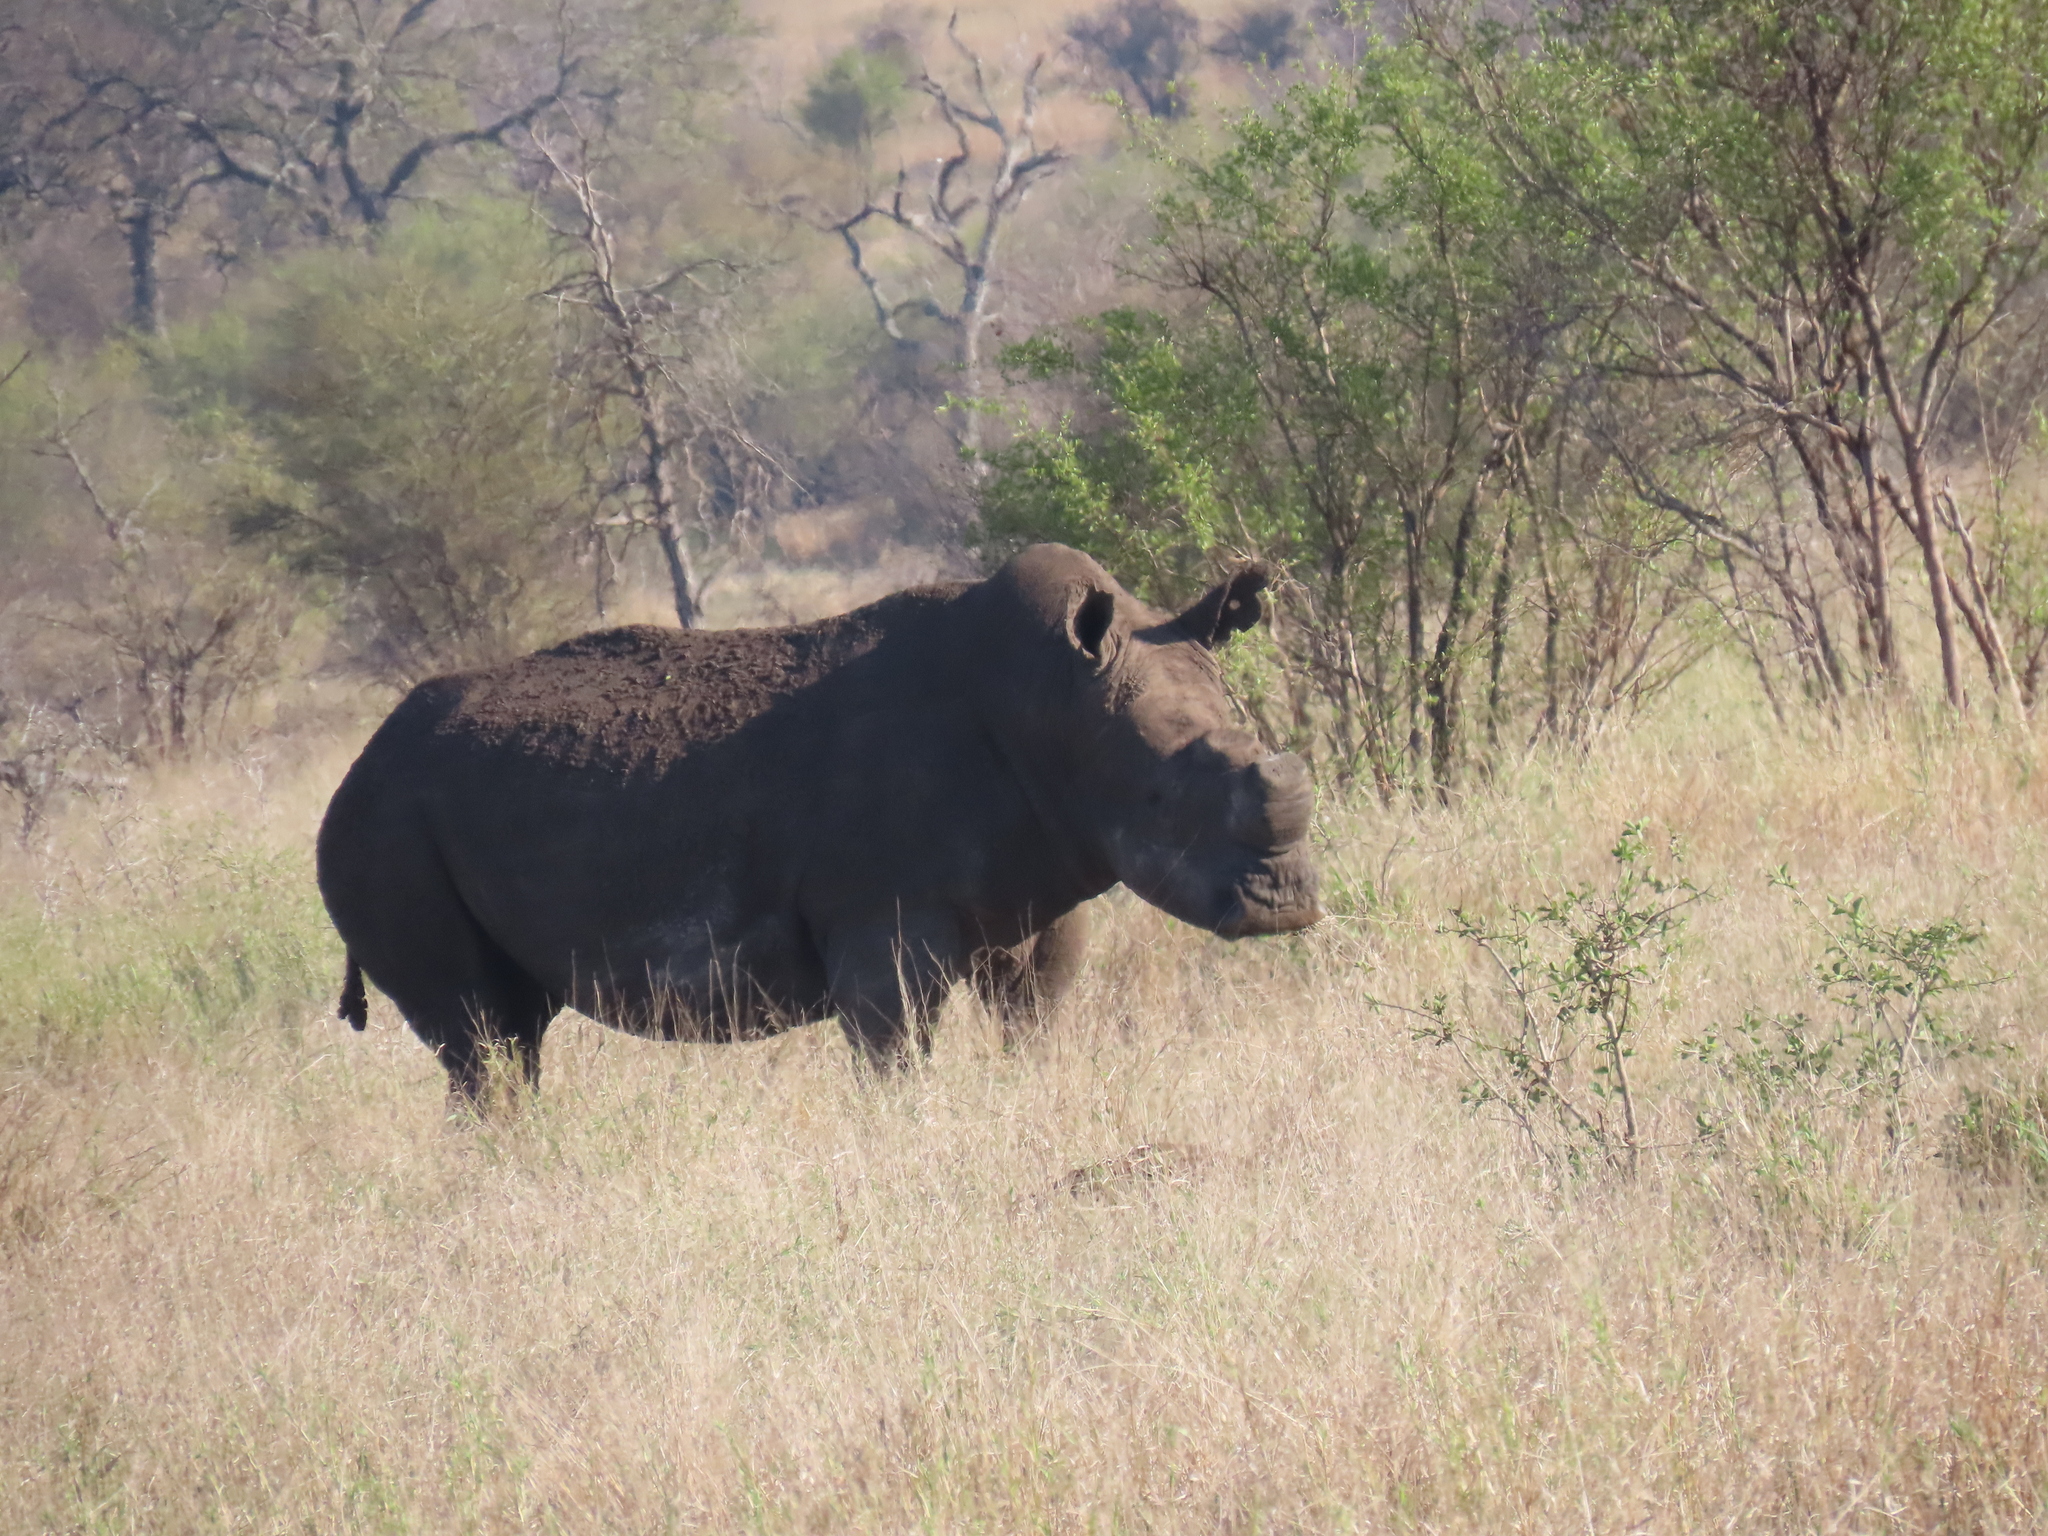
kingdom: Animalia
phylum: Chordata
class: Mammalia
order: Perissodactyla
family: Rhinocerotidae
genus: Ceratotherium
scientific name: Ceratotherium simum
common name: White rhinoceros
